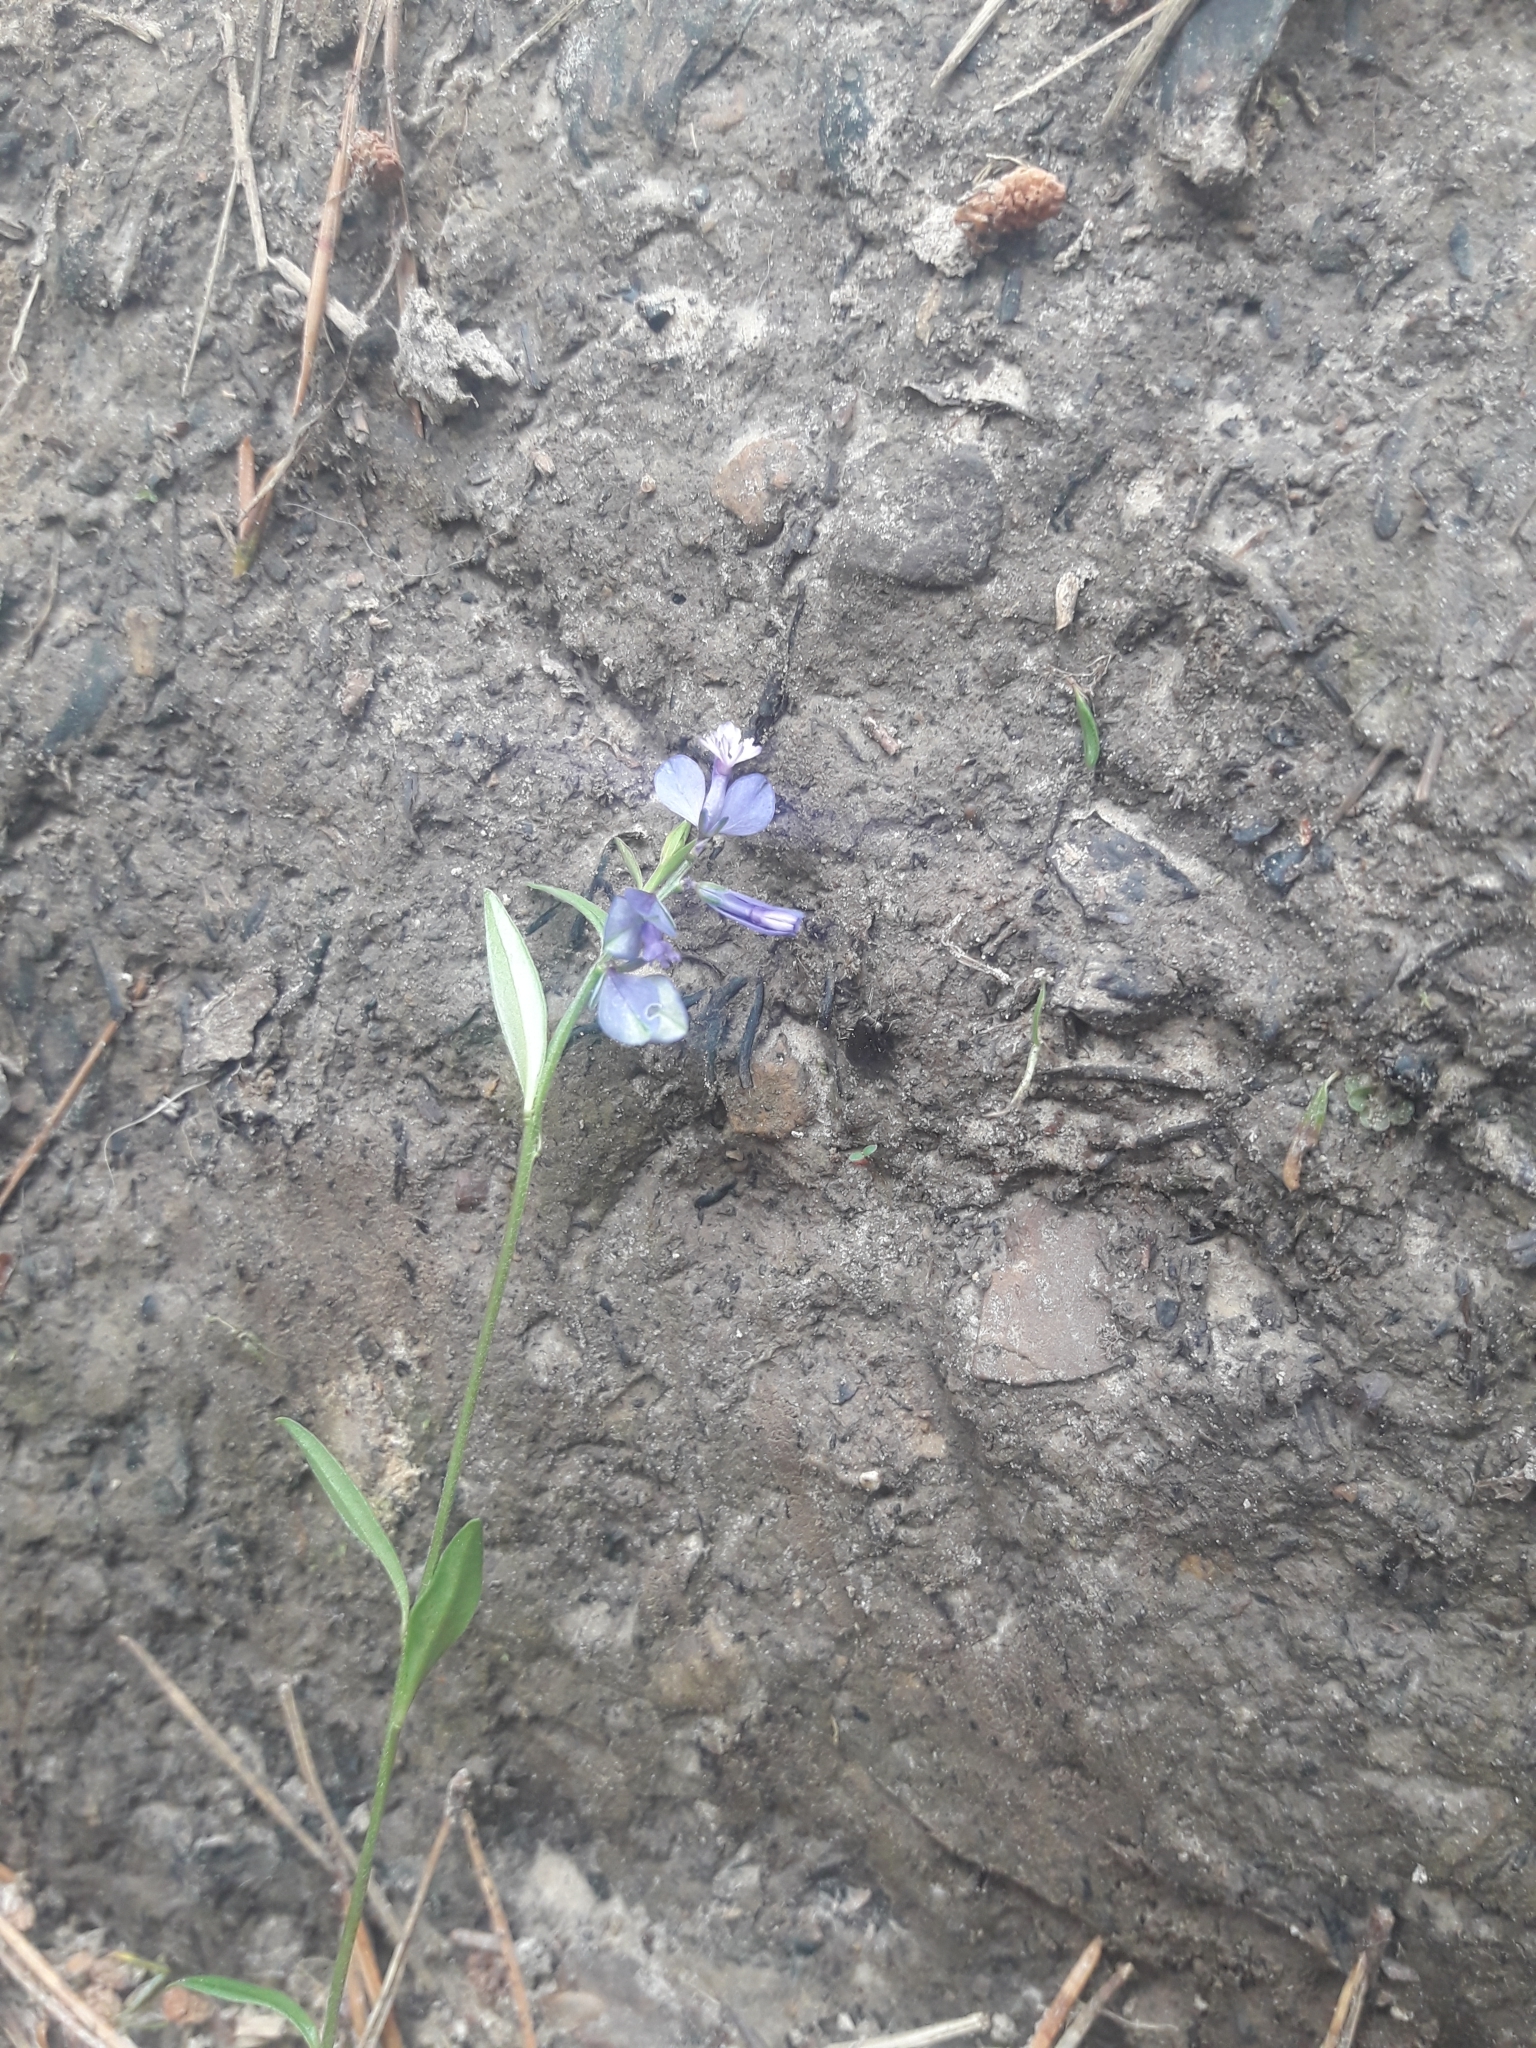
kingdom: Plantae
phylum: Tracheophyta
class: Magnoliopsida
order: Fabales
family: Polygalaceae
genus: Polygala
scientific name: Polygala vulgaris
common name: Common milkwort
